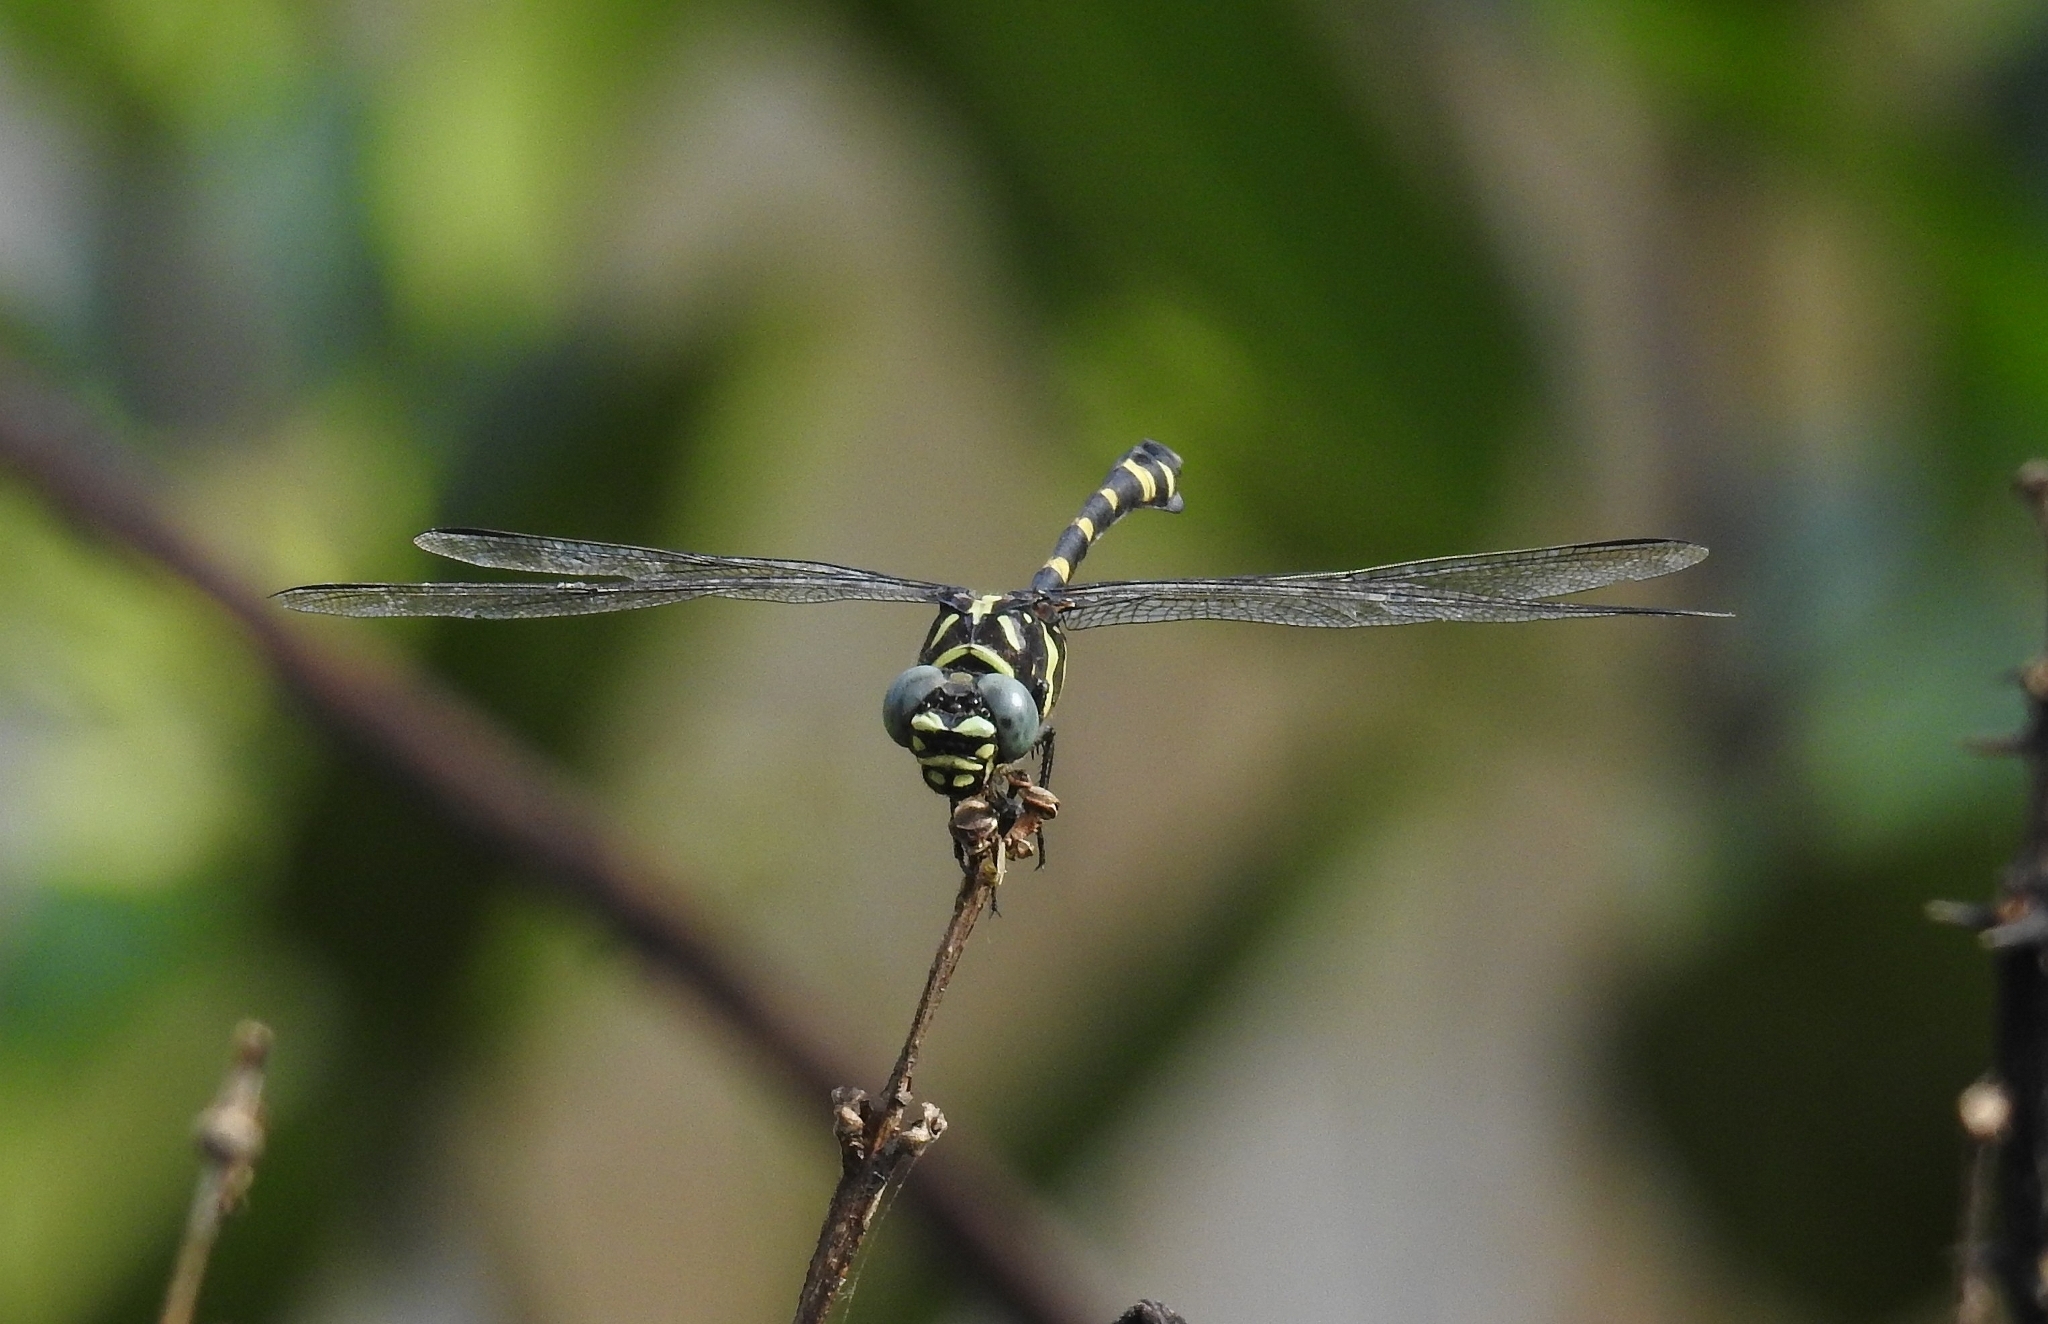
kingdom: Animalia
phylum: Arthropoda
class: Insecta
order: Odonata
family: Gomphidae
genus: Ictinogomphus
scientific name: Ictinogomphus rapax
